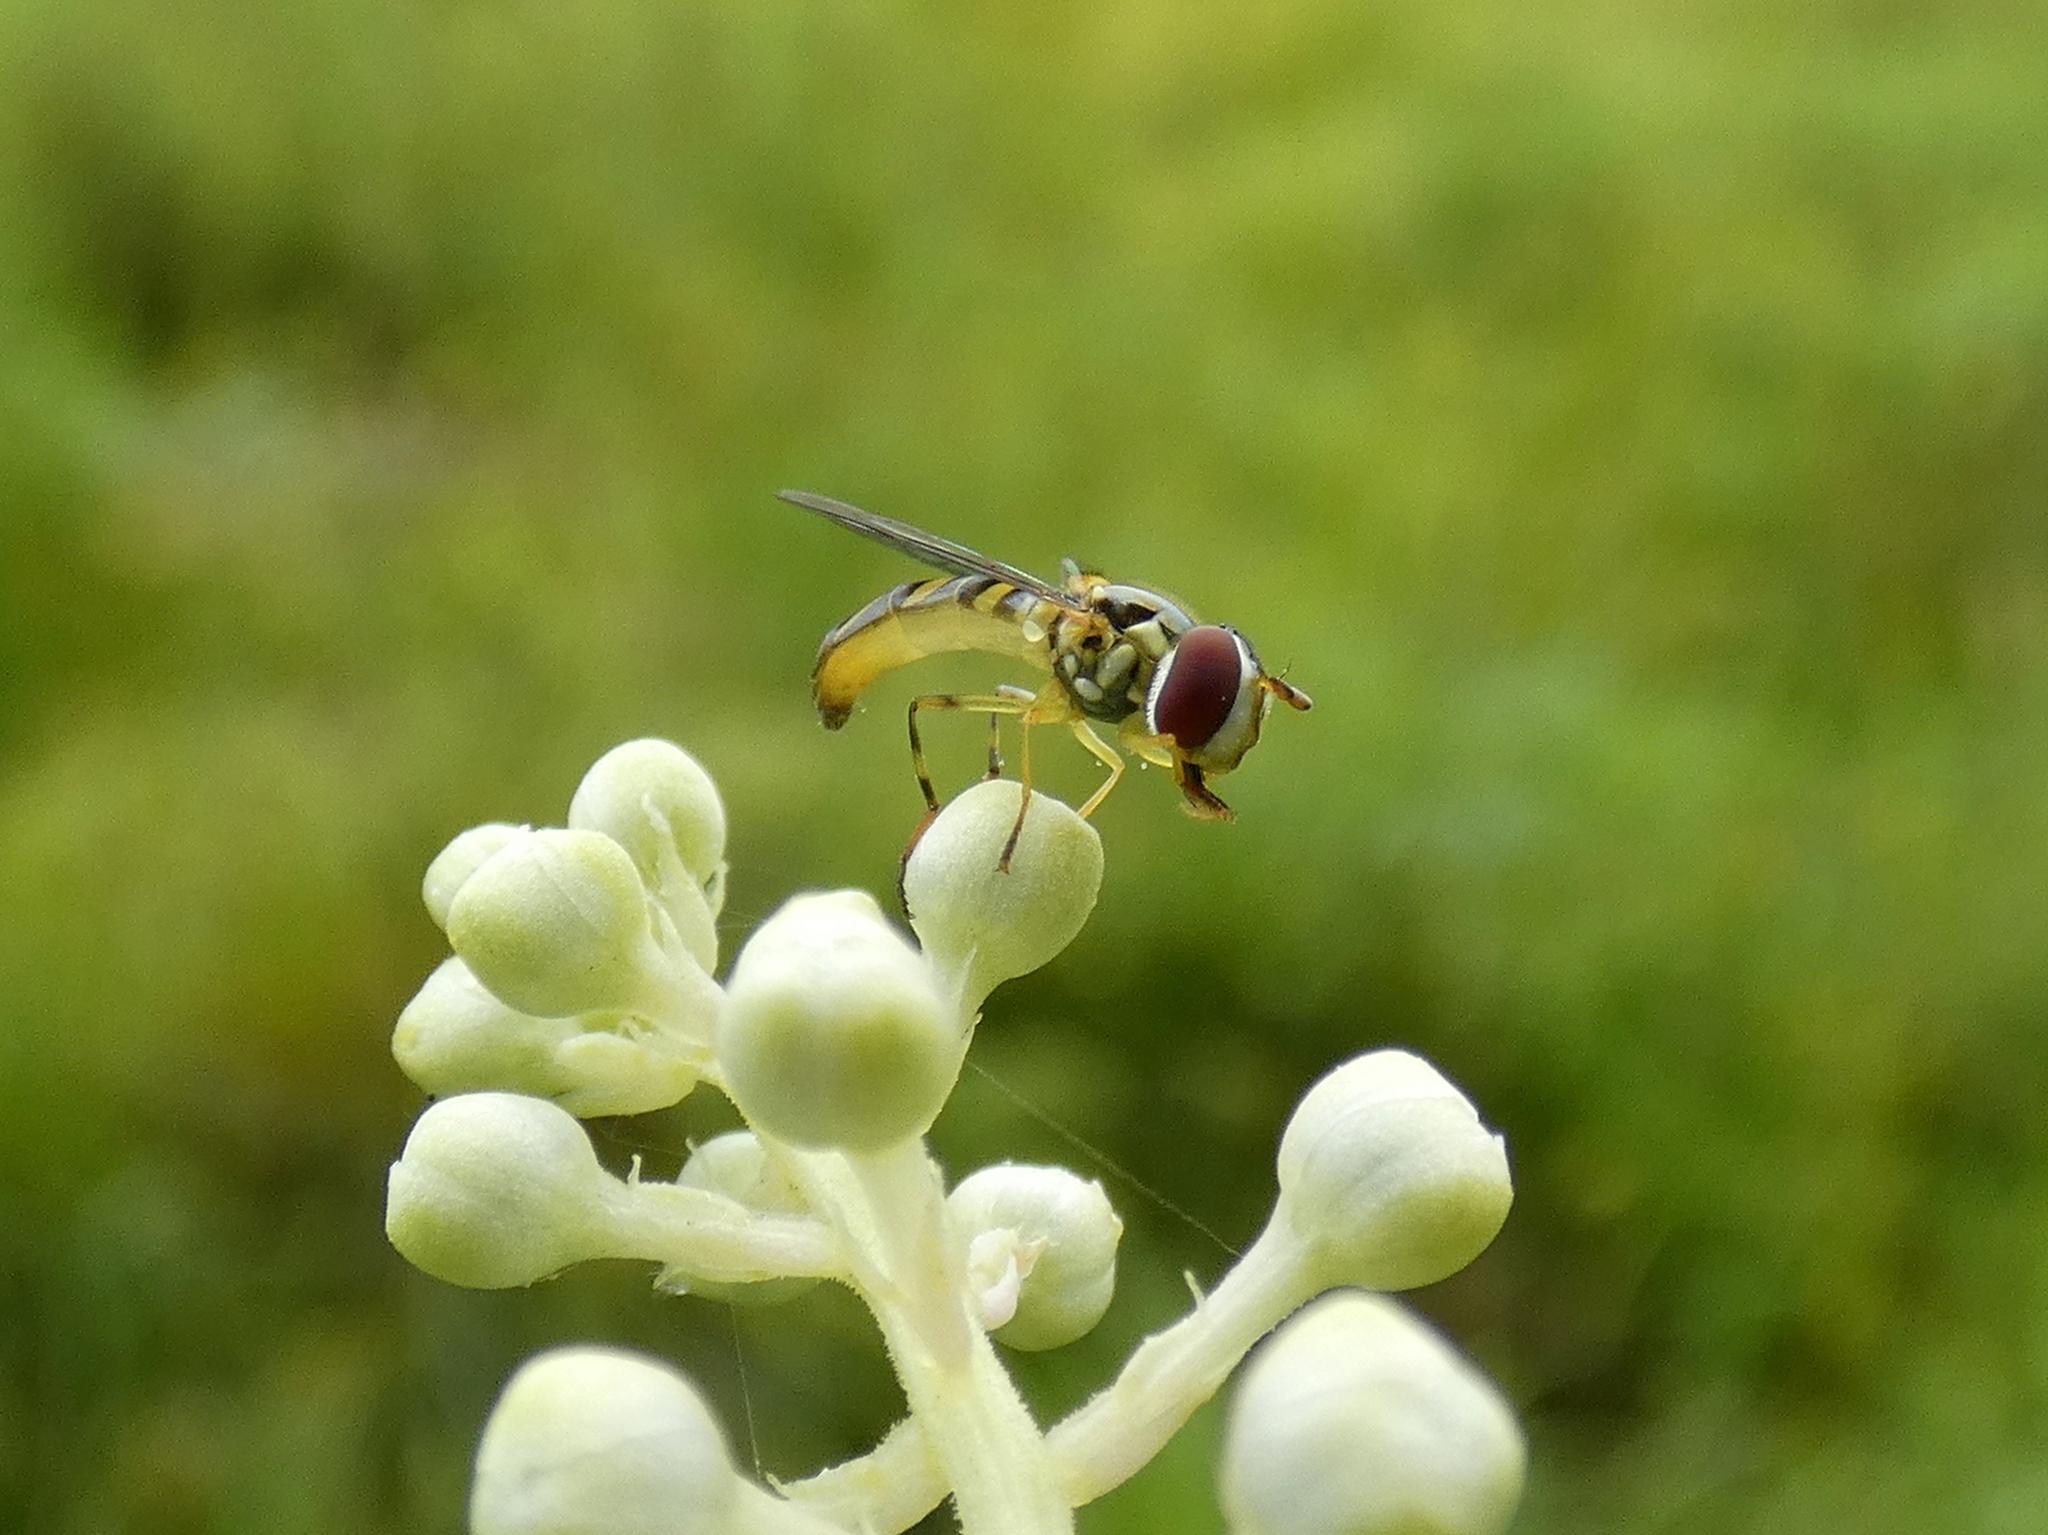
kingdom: Animalia
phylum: Arthropoda
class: Insecta
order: Diptera
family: Syrphidae
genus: Allograpta
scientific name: Allograpta obliqua
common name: Common oblique syrphid
